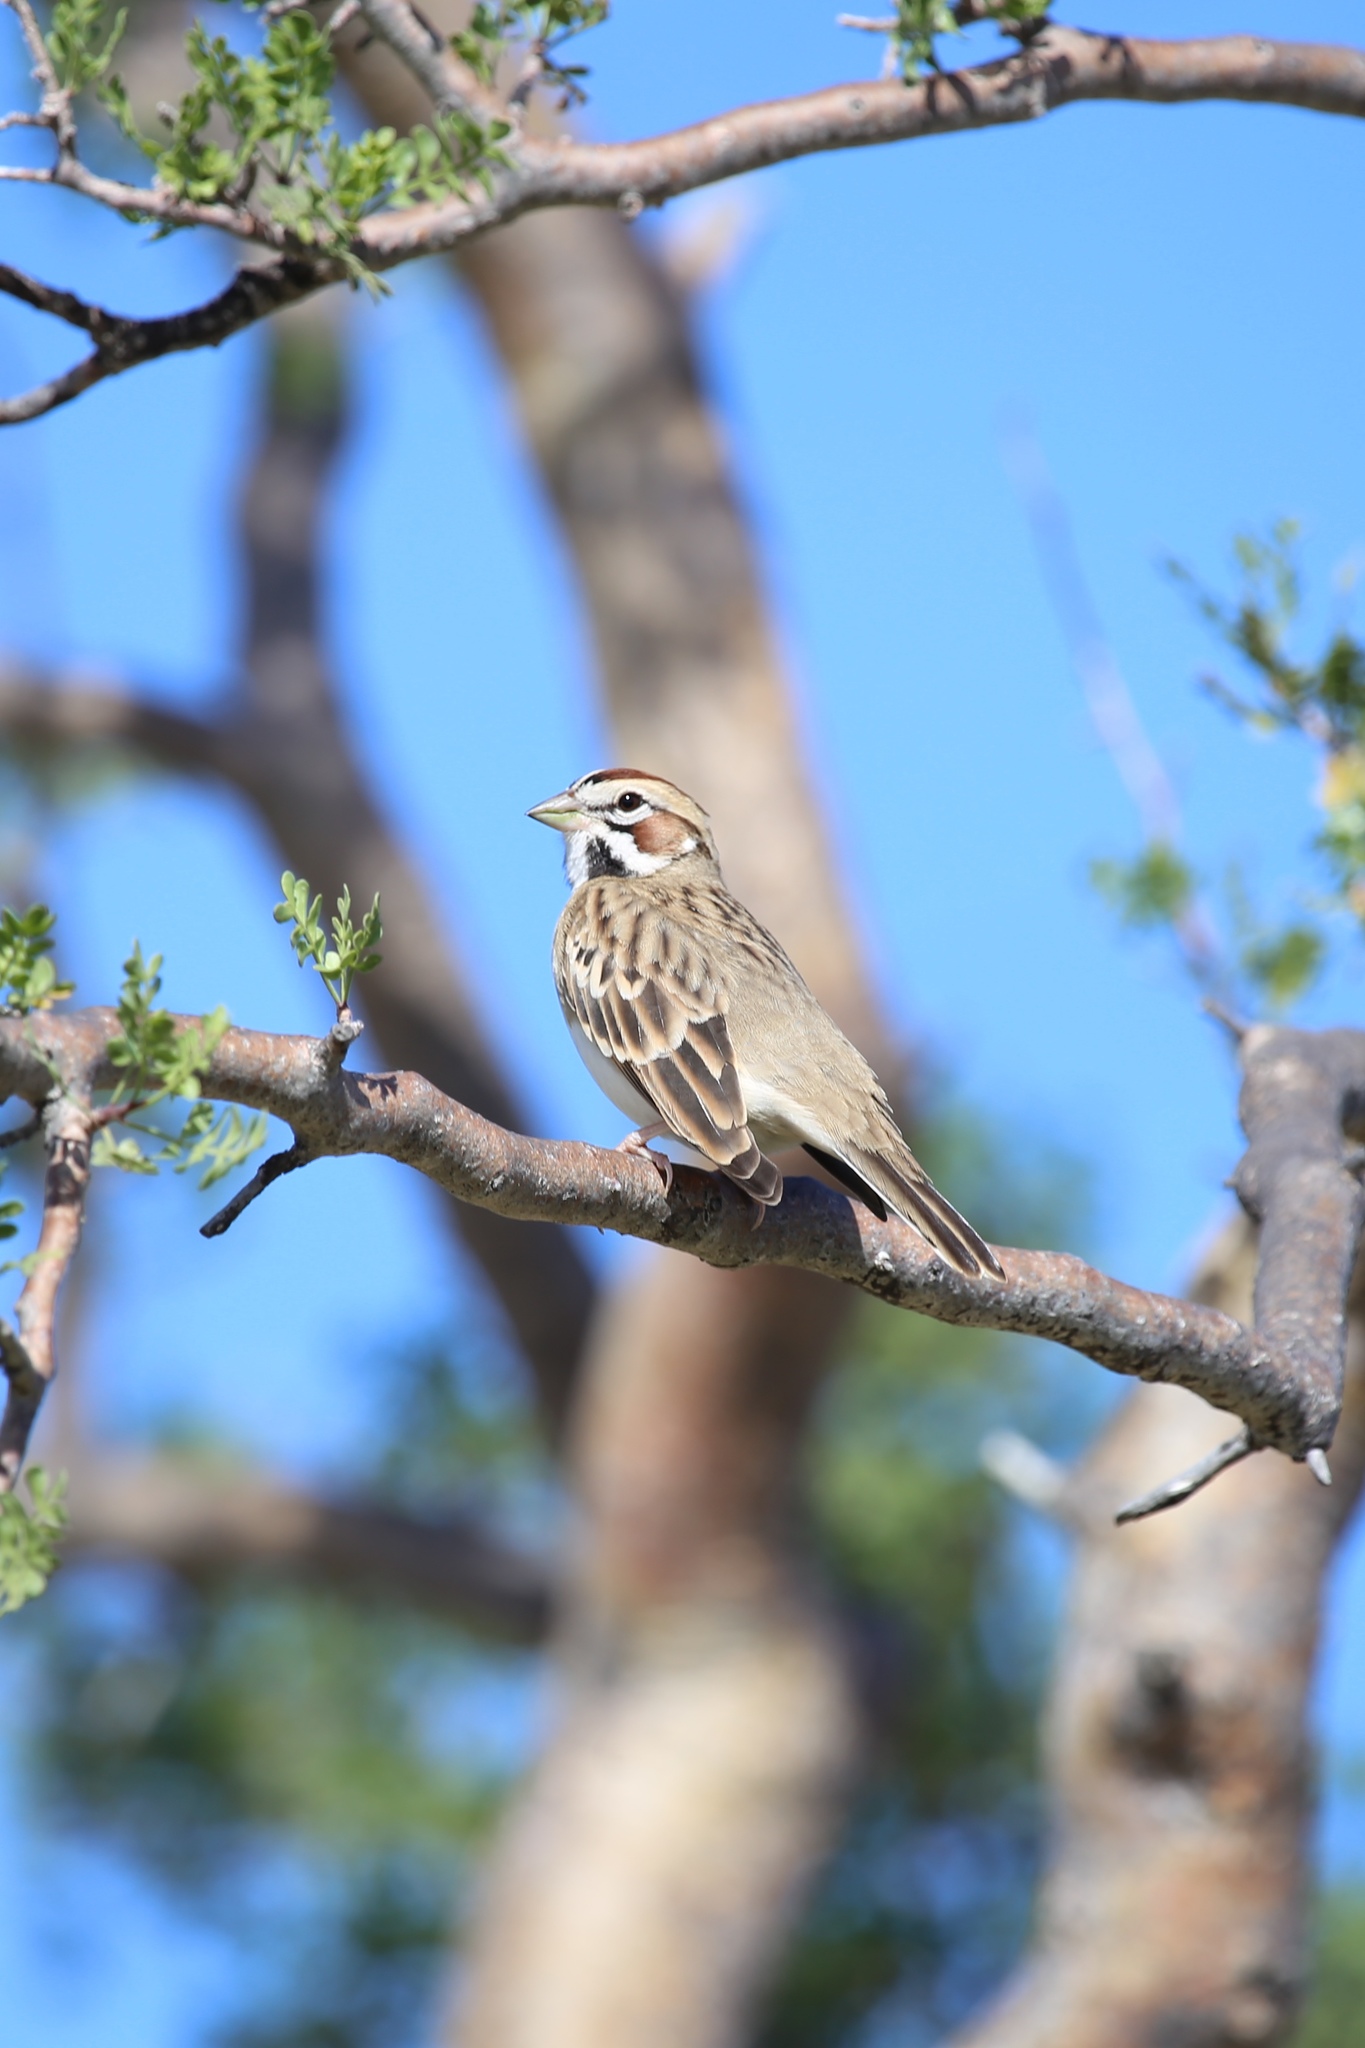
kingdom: Animalia
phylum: Chordata
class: Aves
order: Passeriformes
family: Passerellidae
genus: Chondestes
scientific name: Chondestes grammacus
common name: Lark sparrow
